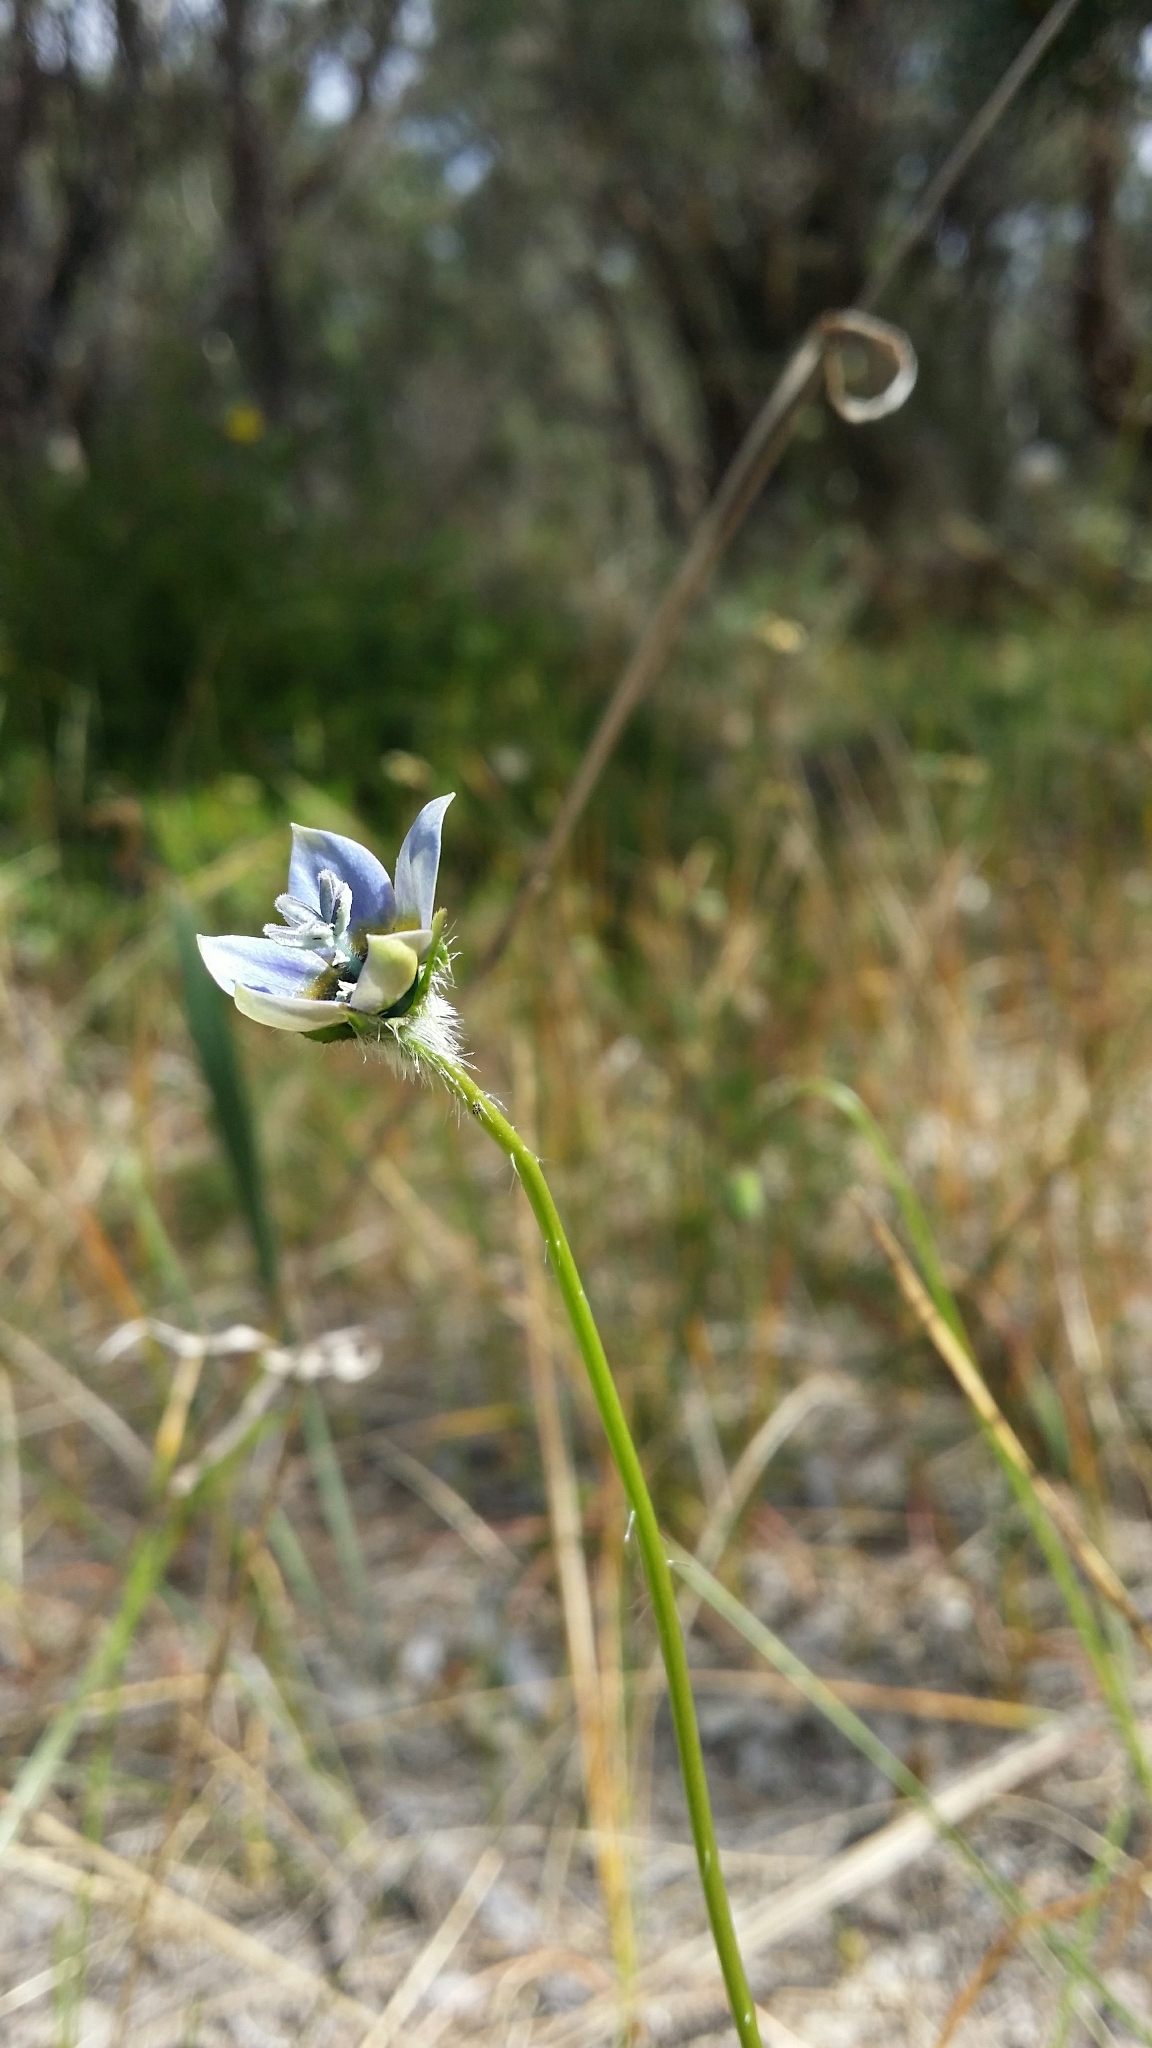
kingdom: Plantae
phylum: Tracheophyta
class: Magnoliopsida
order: Asterales
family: Campanulaceae
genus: Wahlenbergia
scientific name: Wahlenbergia capensis
